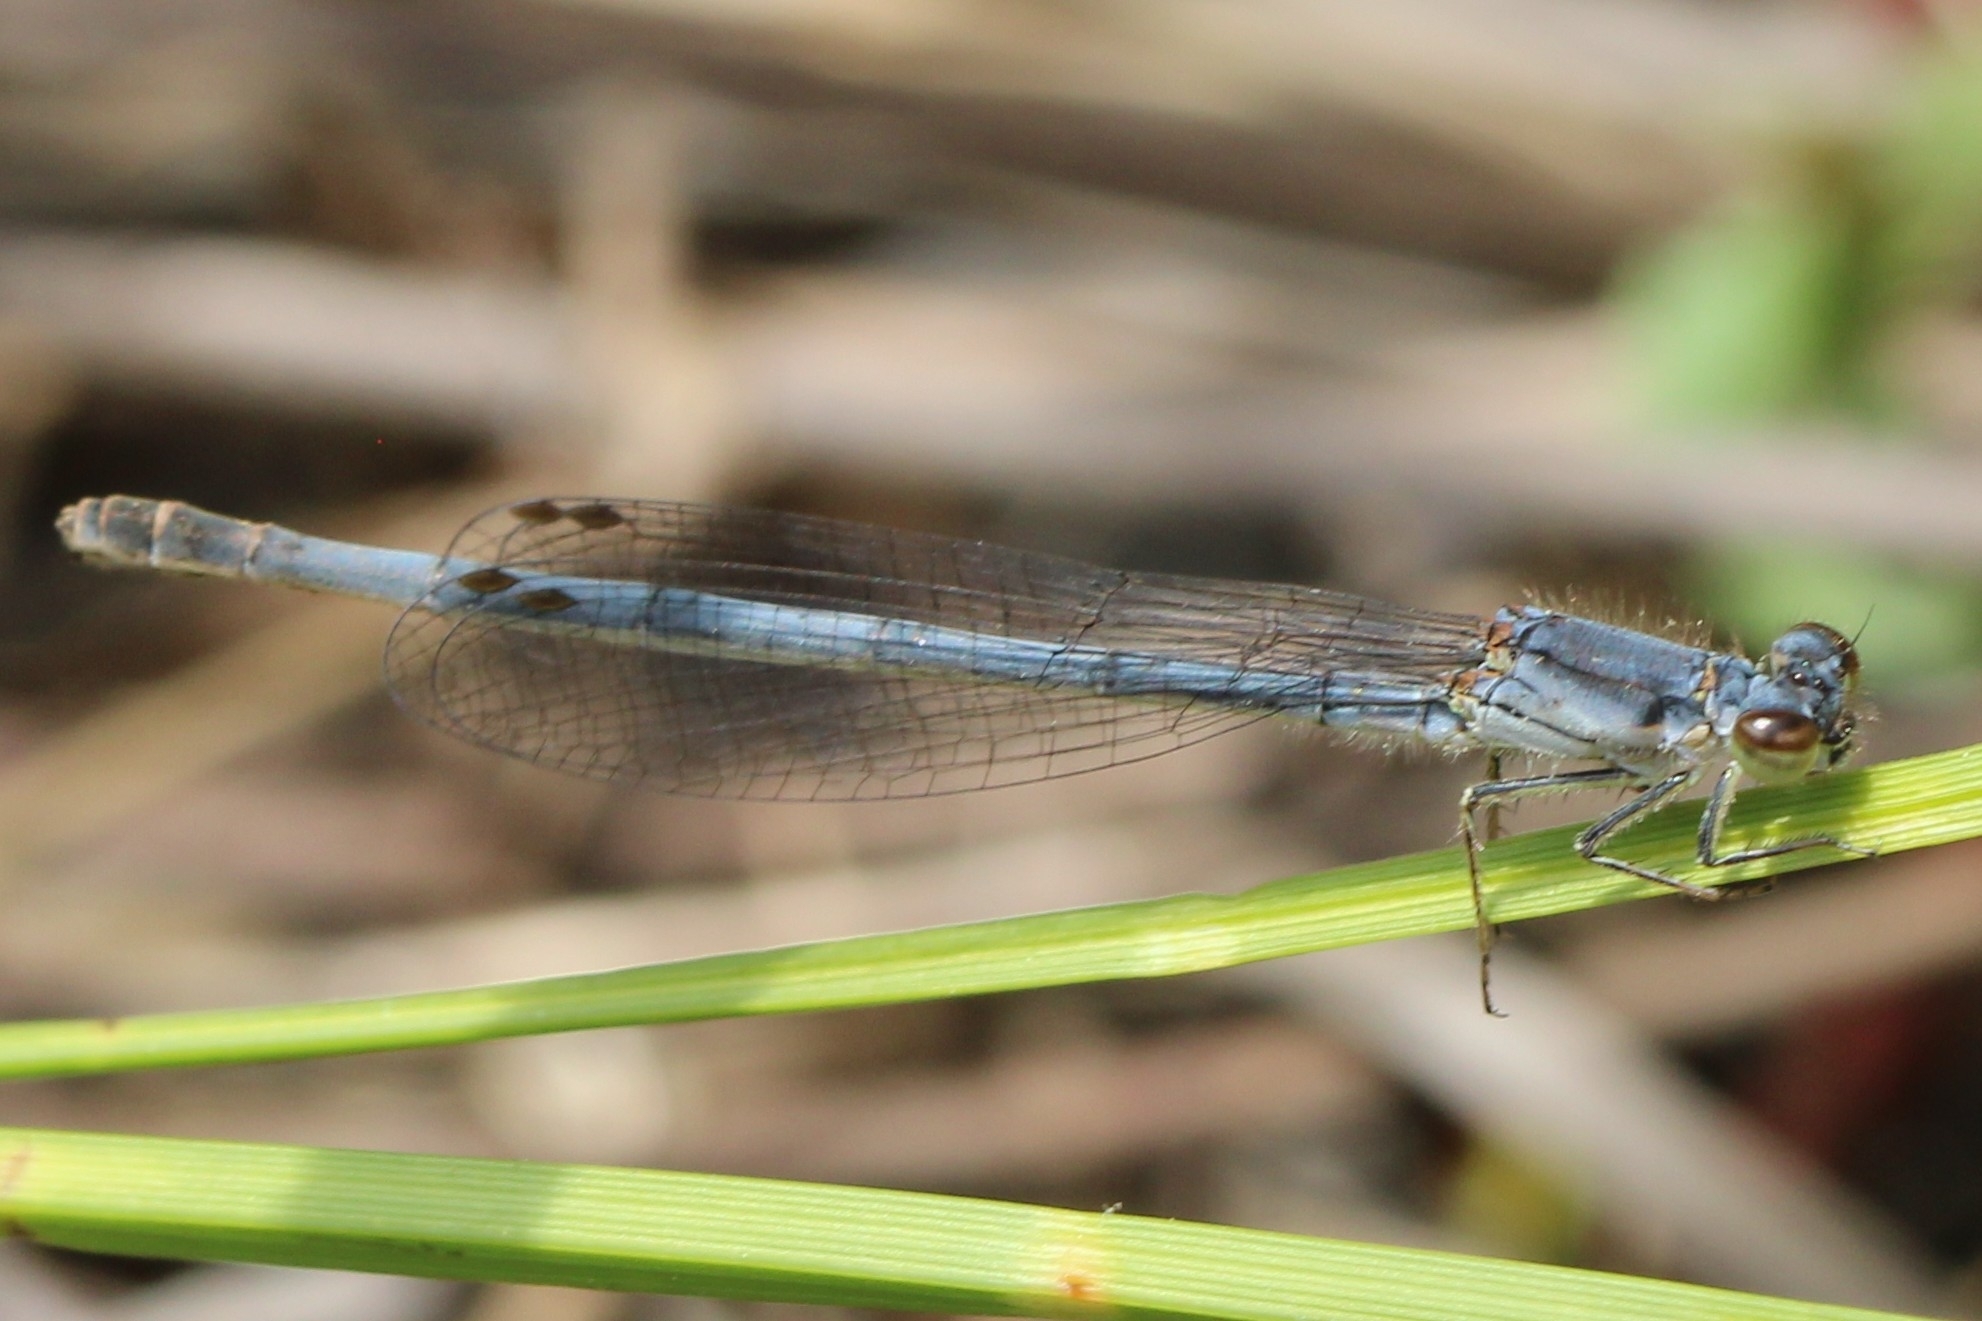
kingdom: Animalia
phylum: Arthropoda
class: Insecta
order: Odonata
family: Coenagrionidae
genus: Ischnura
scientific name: Ischnura posita
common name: Fragile forktail
